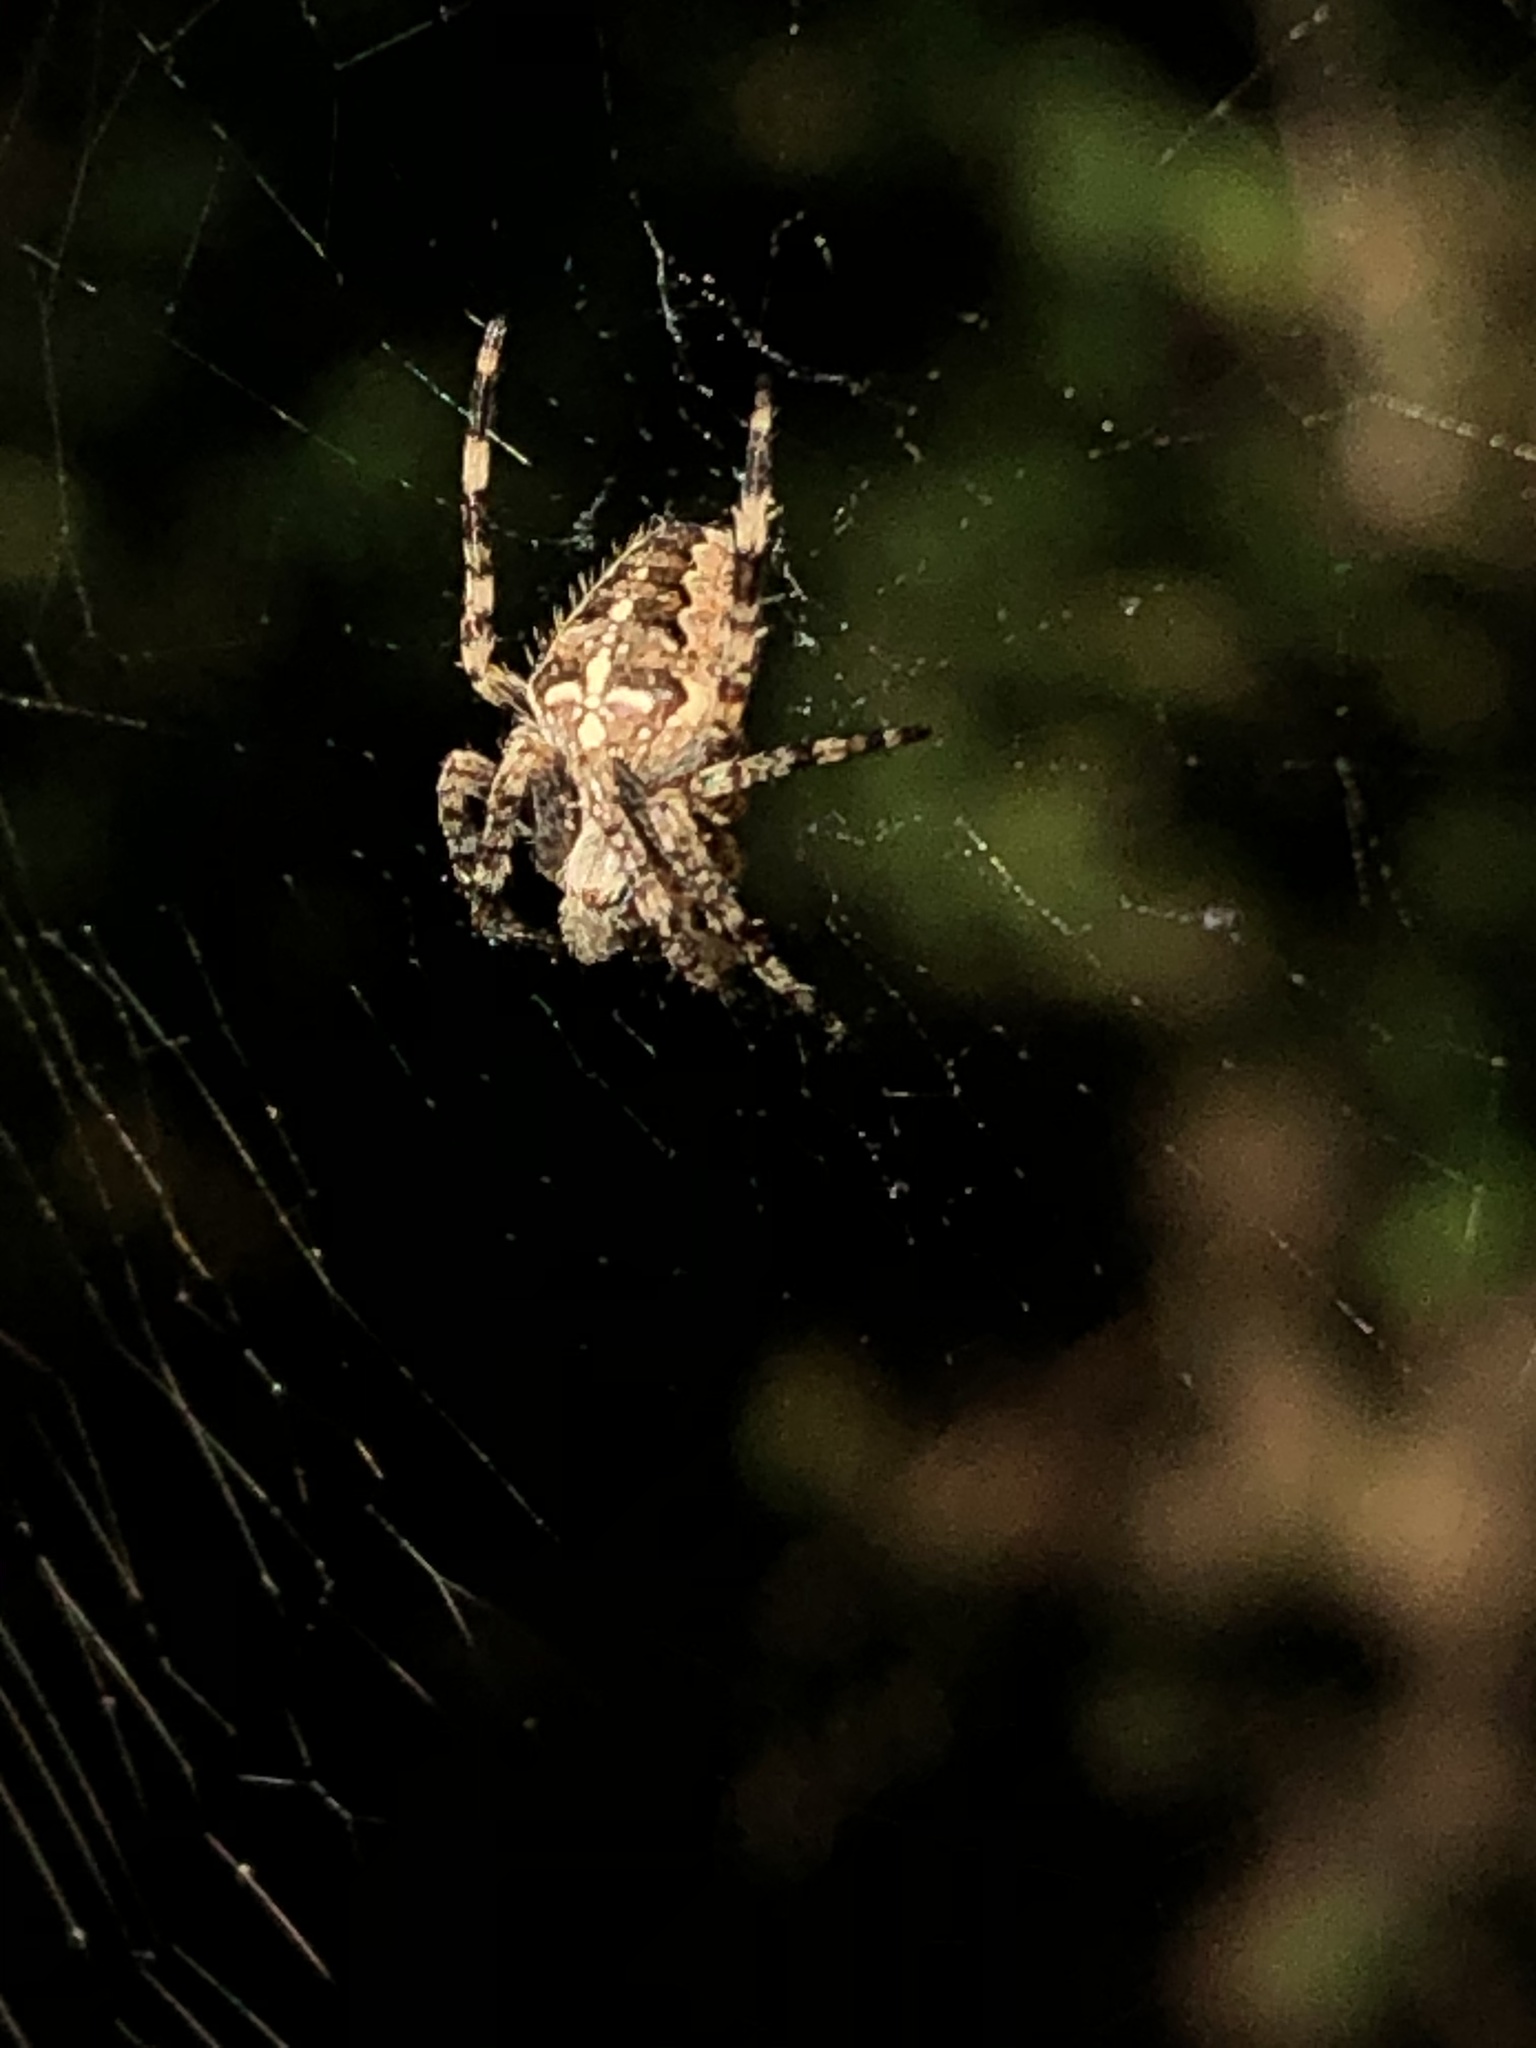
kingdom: Animalia
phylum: Arthropoda
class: Arachnida
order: Araneae
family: Araneidae
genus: Araneus
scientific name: Araneus diadematus
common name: Cross orbweaver
